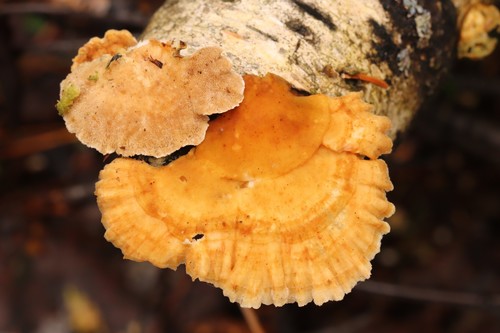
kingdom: Fungi
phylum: Basidiomycota
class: Agaricomycetes
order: Polyporales
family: Polyporaceae
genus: Trametes
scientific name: Trametes ochracea
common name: Ochre bracket
